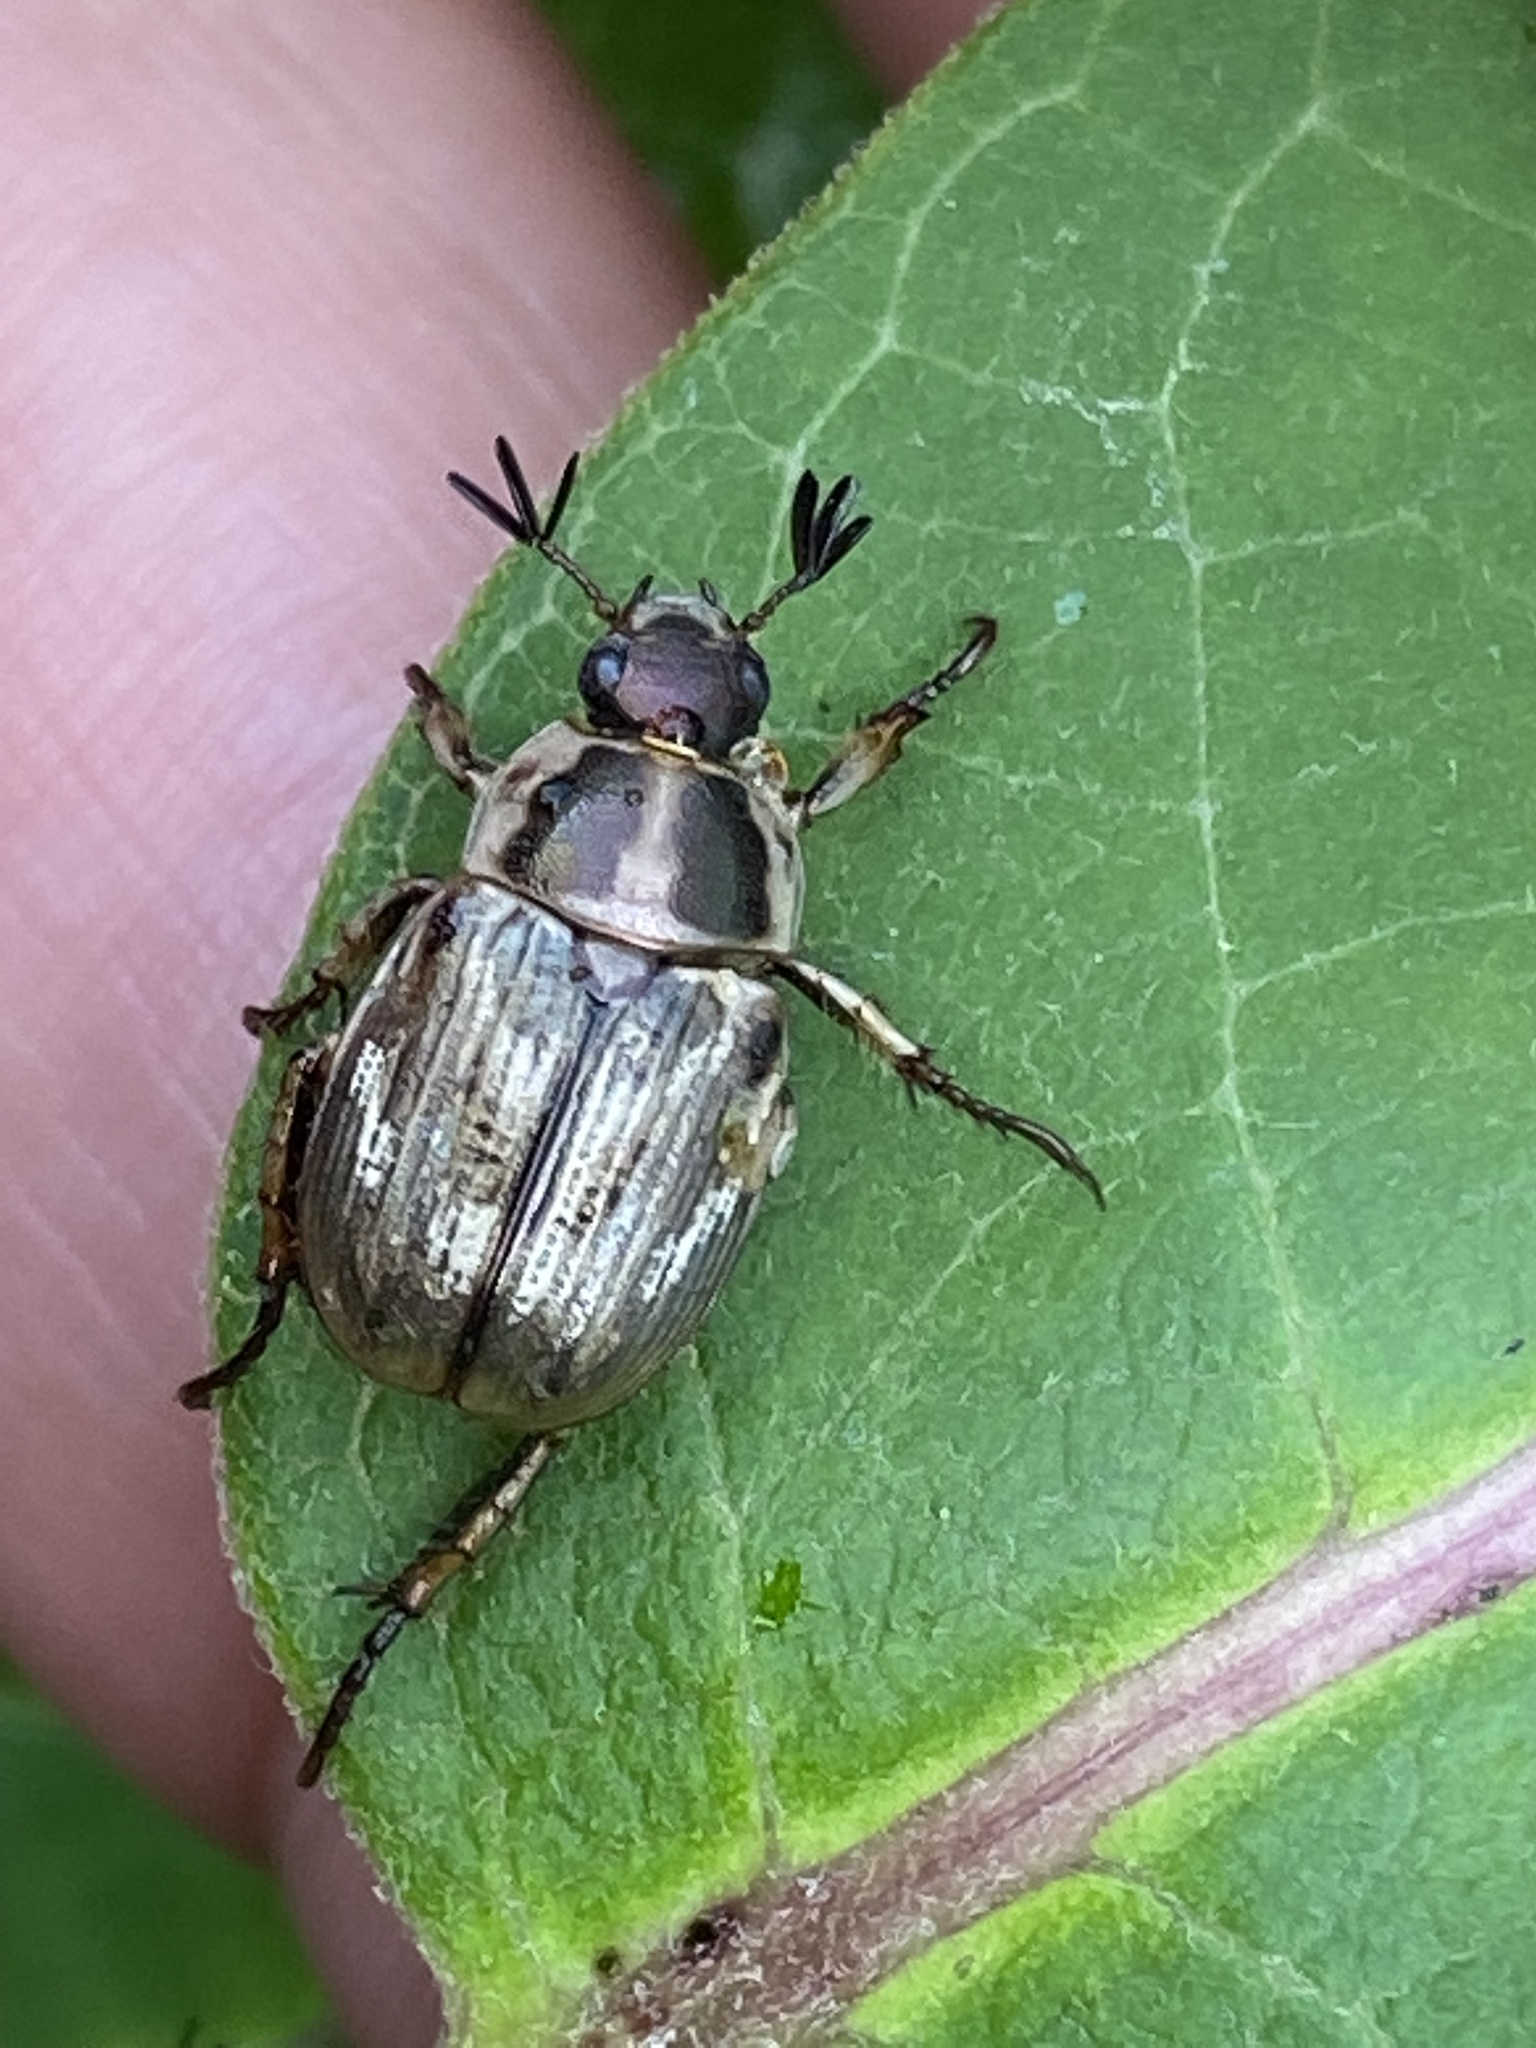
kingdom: Animalia
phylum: Arthropoda
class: Insecta
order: Coleoptera
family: Scarabaeidae
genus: Exomala
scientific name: Exomala orientalis
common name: Oriental beetle
